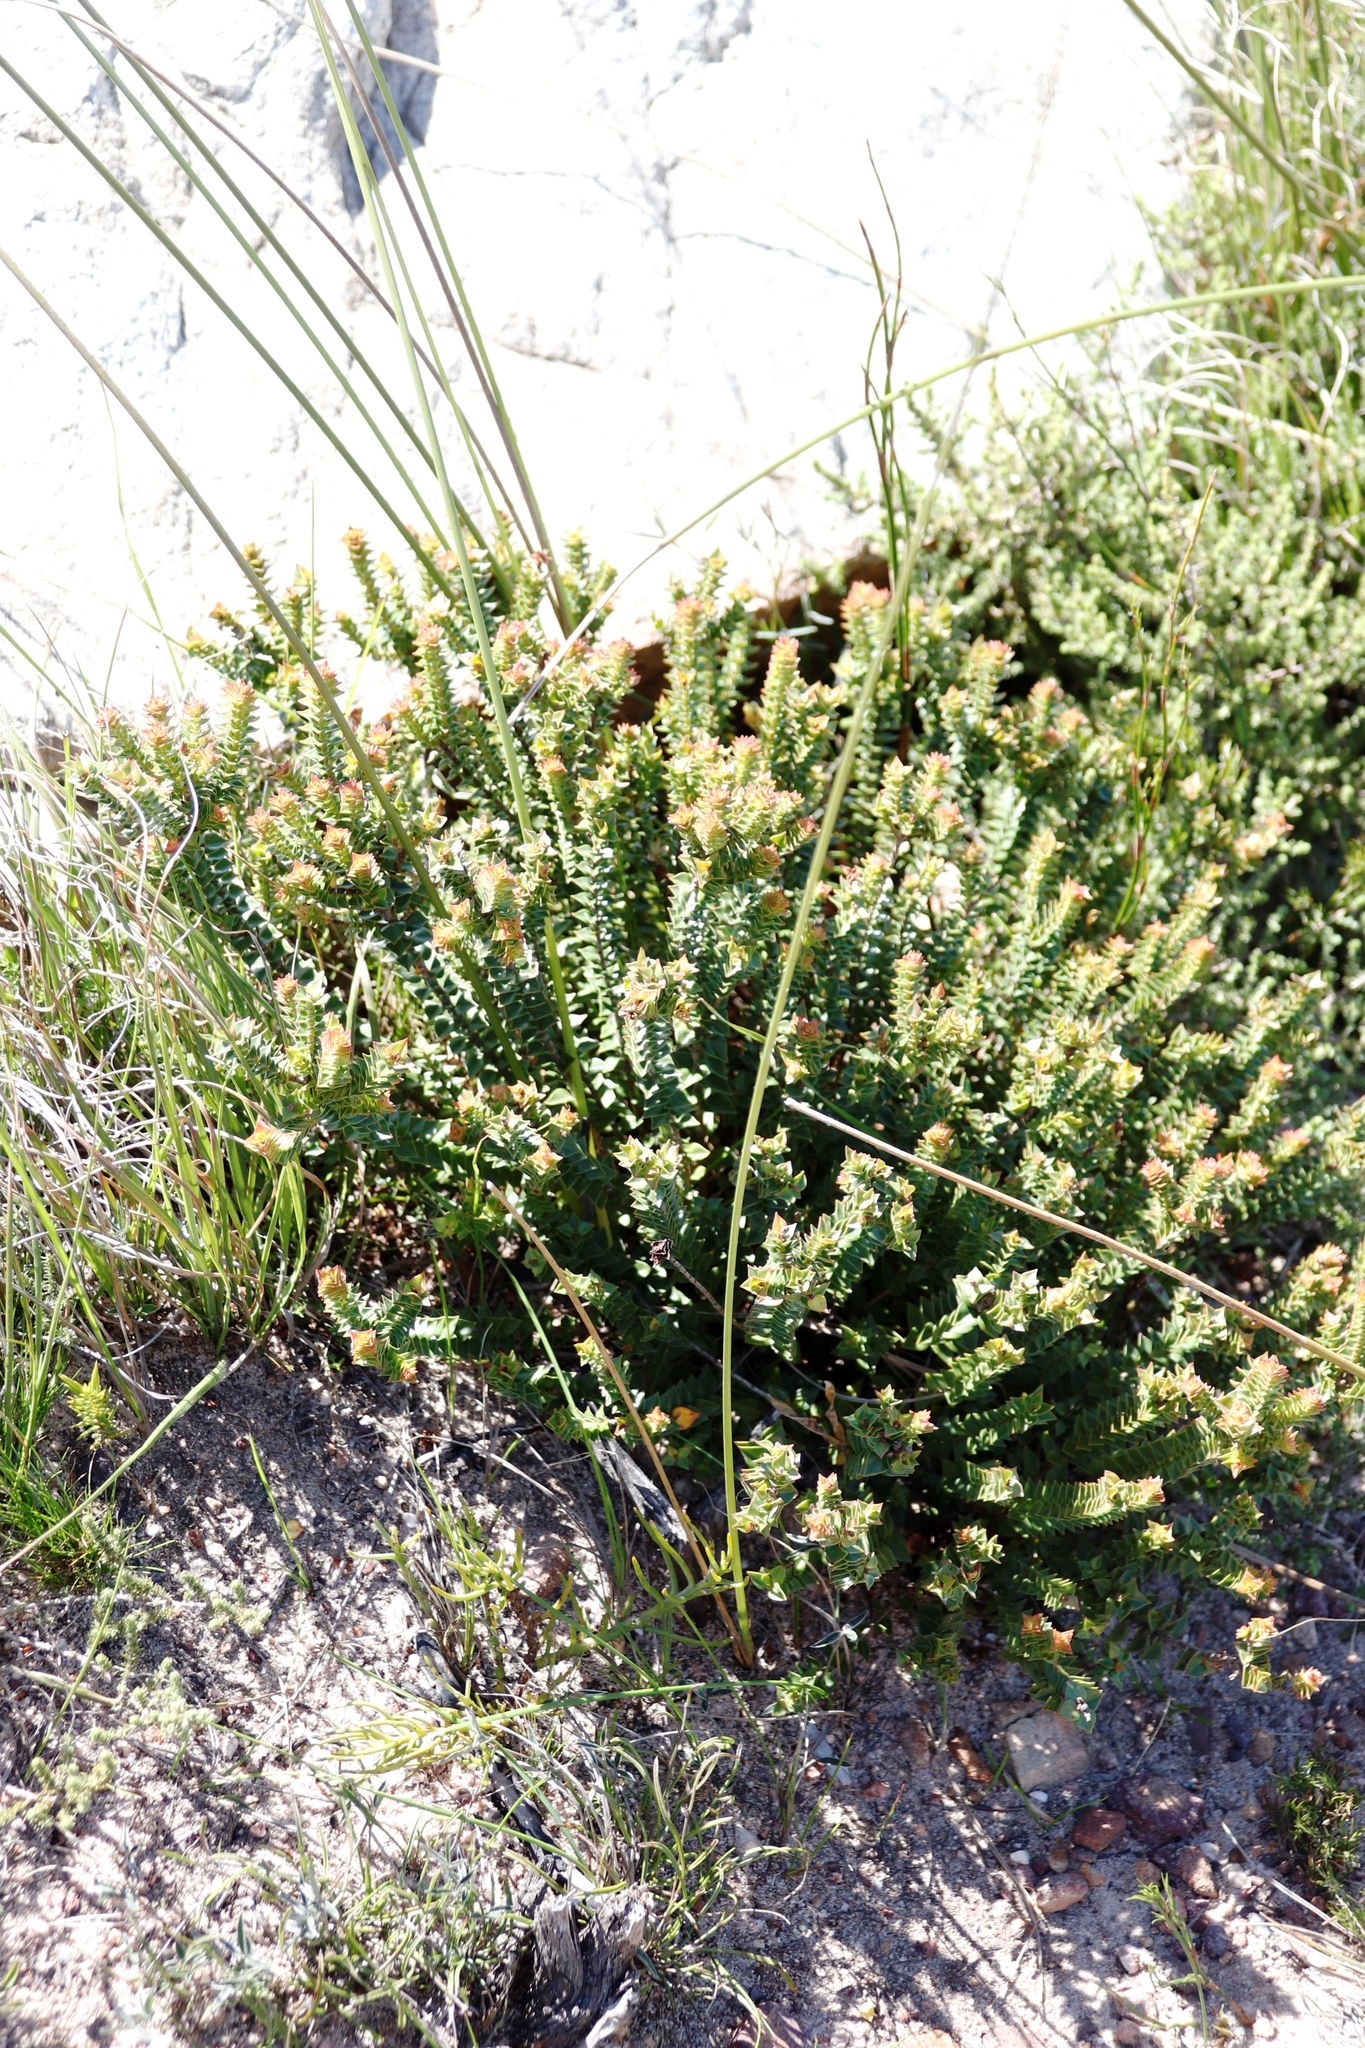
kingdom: Plantae
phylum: Tracheophyta
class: Magnoliopsida
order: Myrtales
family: Penaeaceae
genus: Penaea
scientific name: Penaea mucronata
